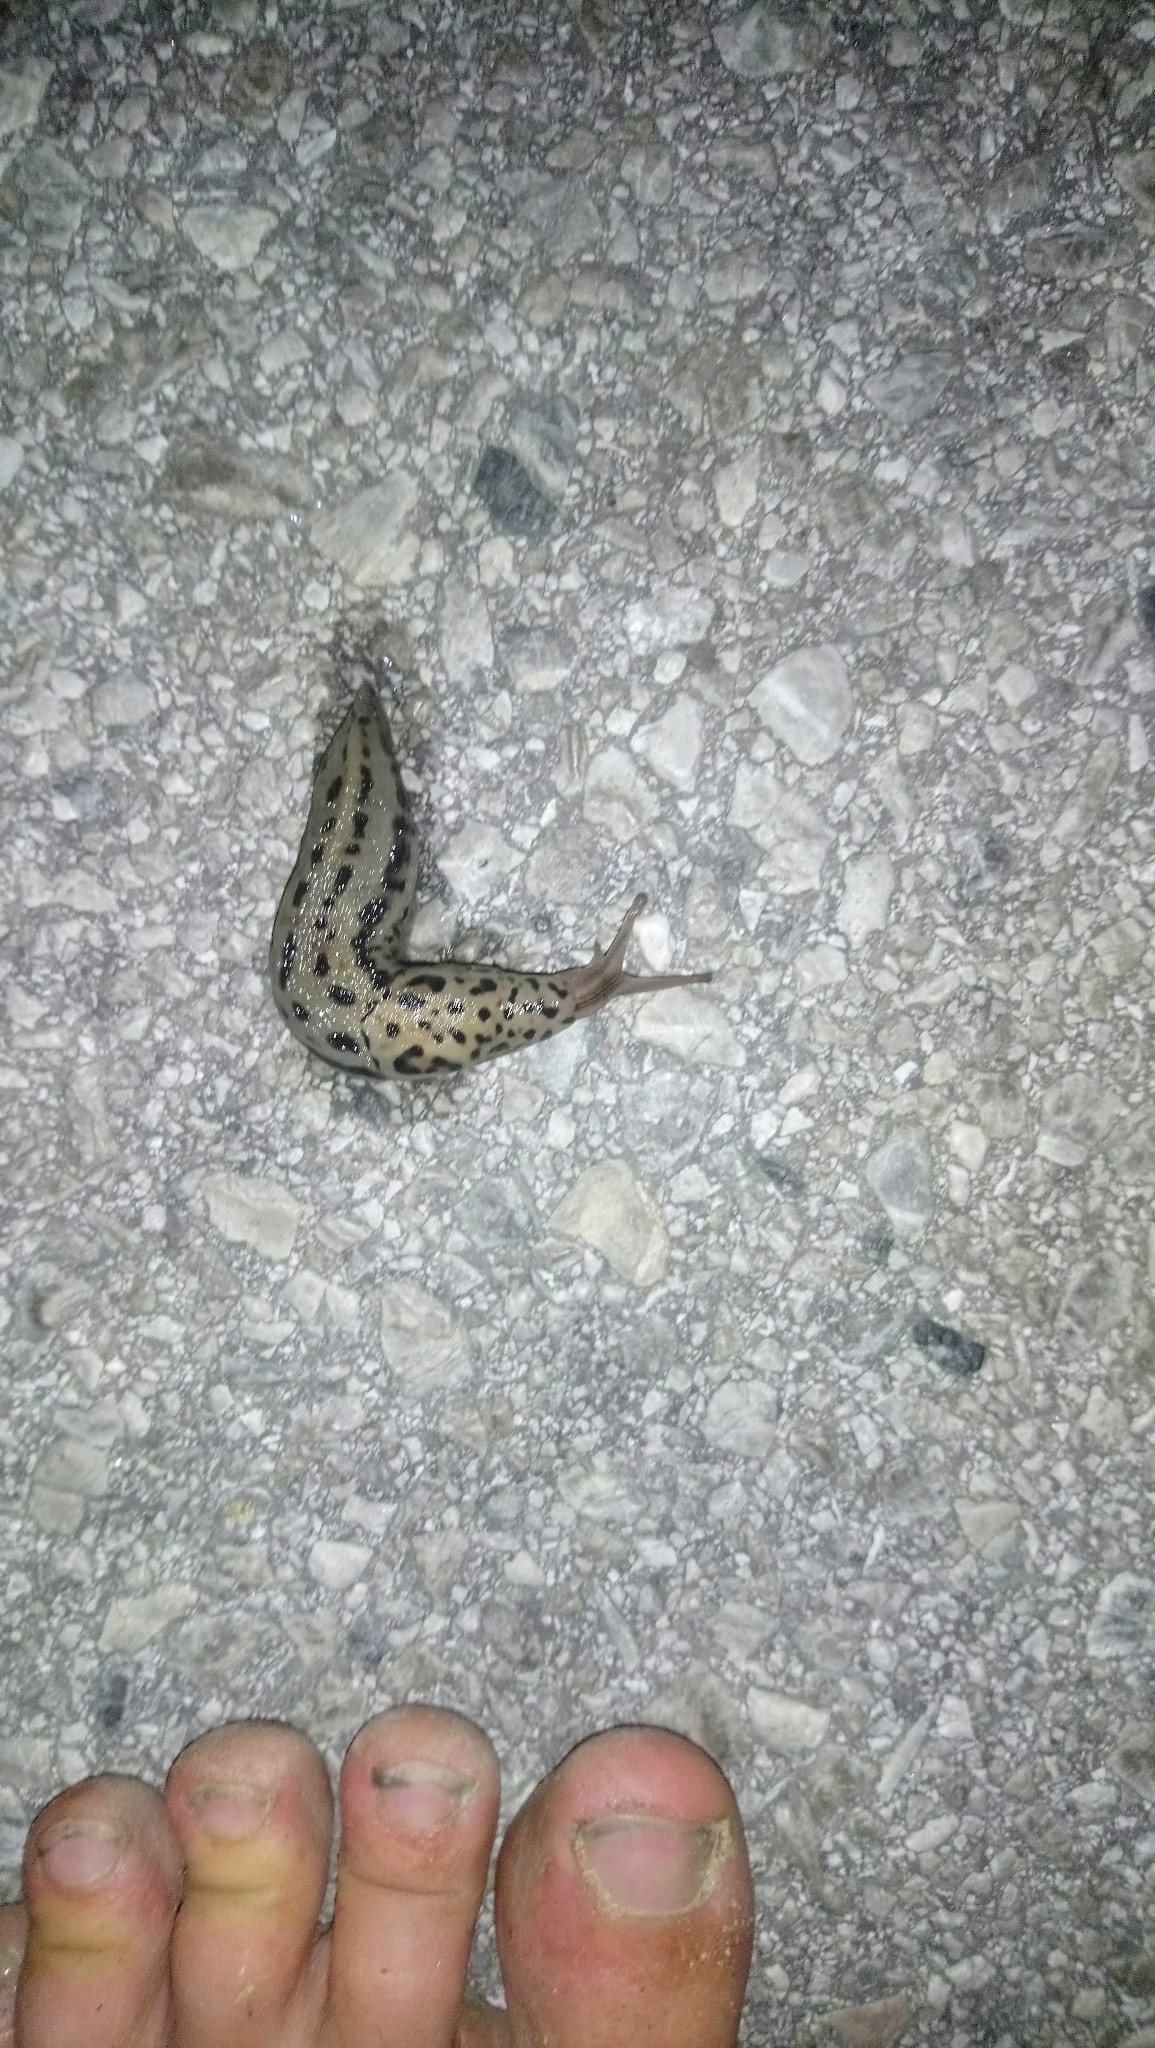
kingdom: Animalia
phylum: Mollusca
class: Gastropoda
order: Stylommatophora
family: Limacidae
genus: Limax
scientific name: Limax maximus
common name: Great grey slug
